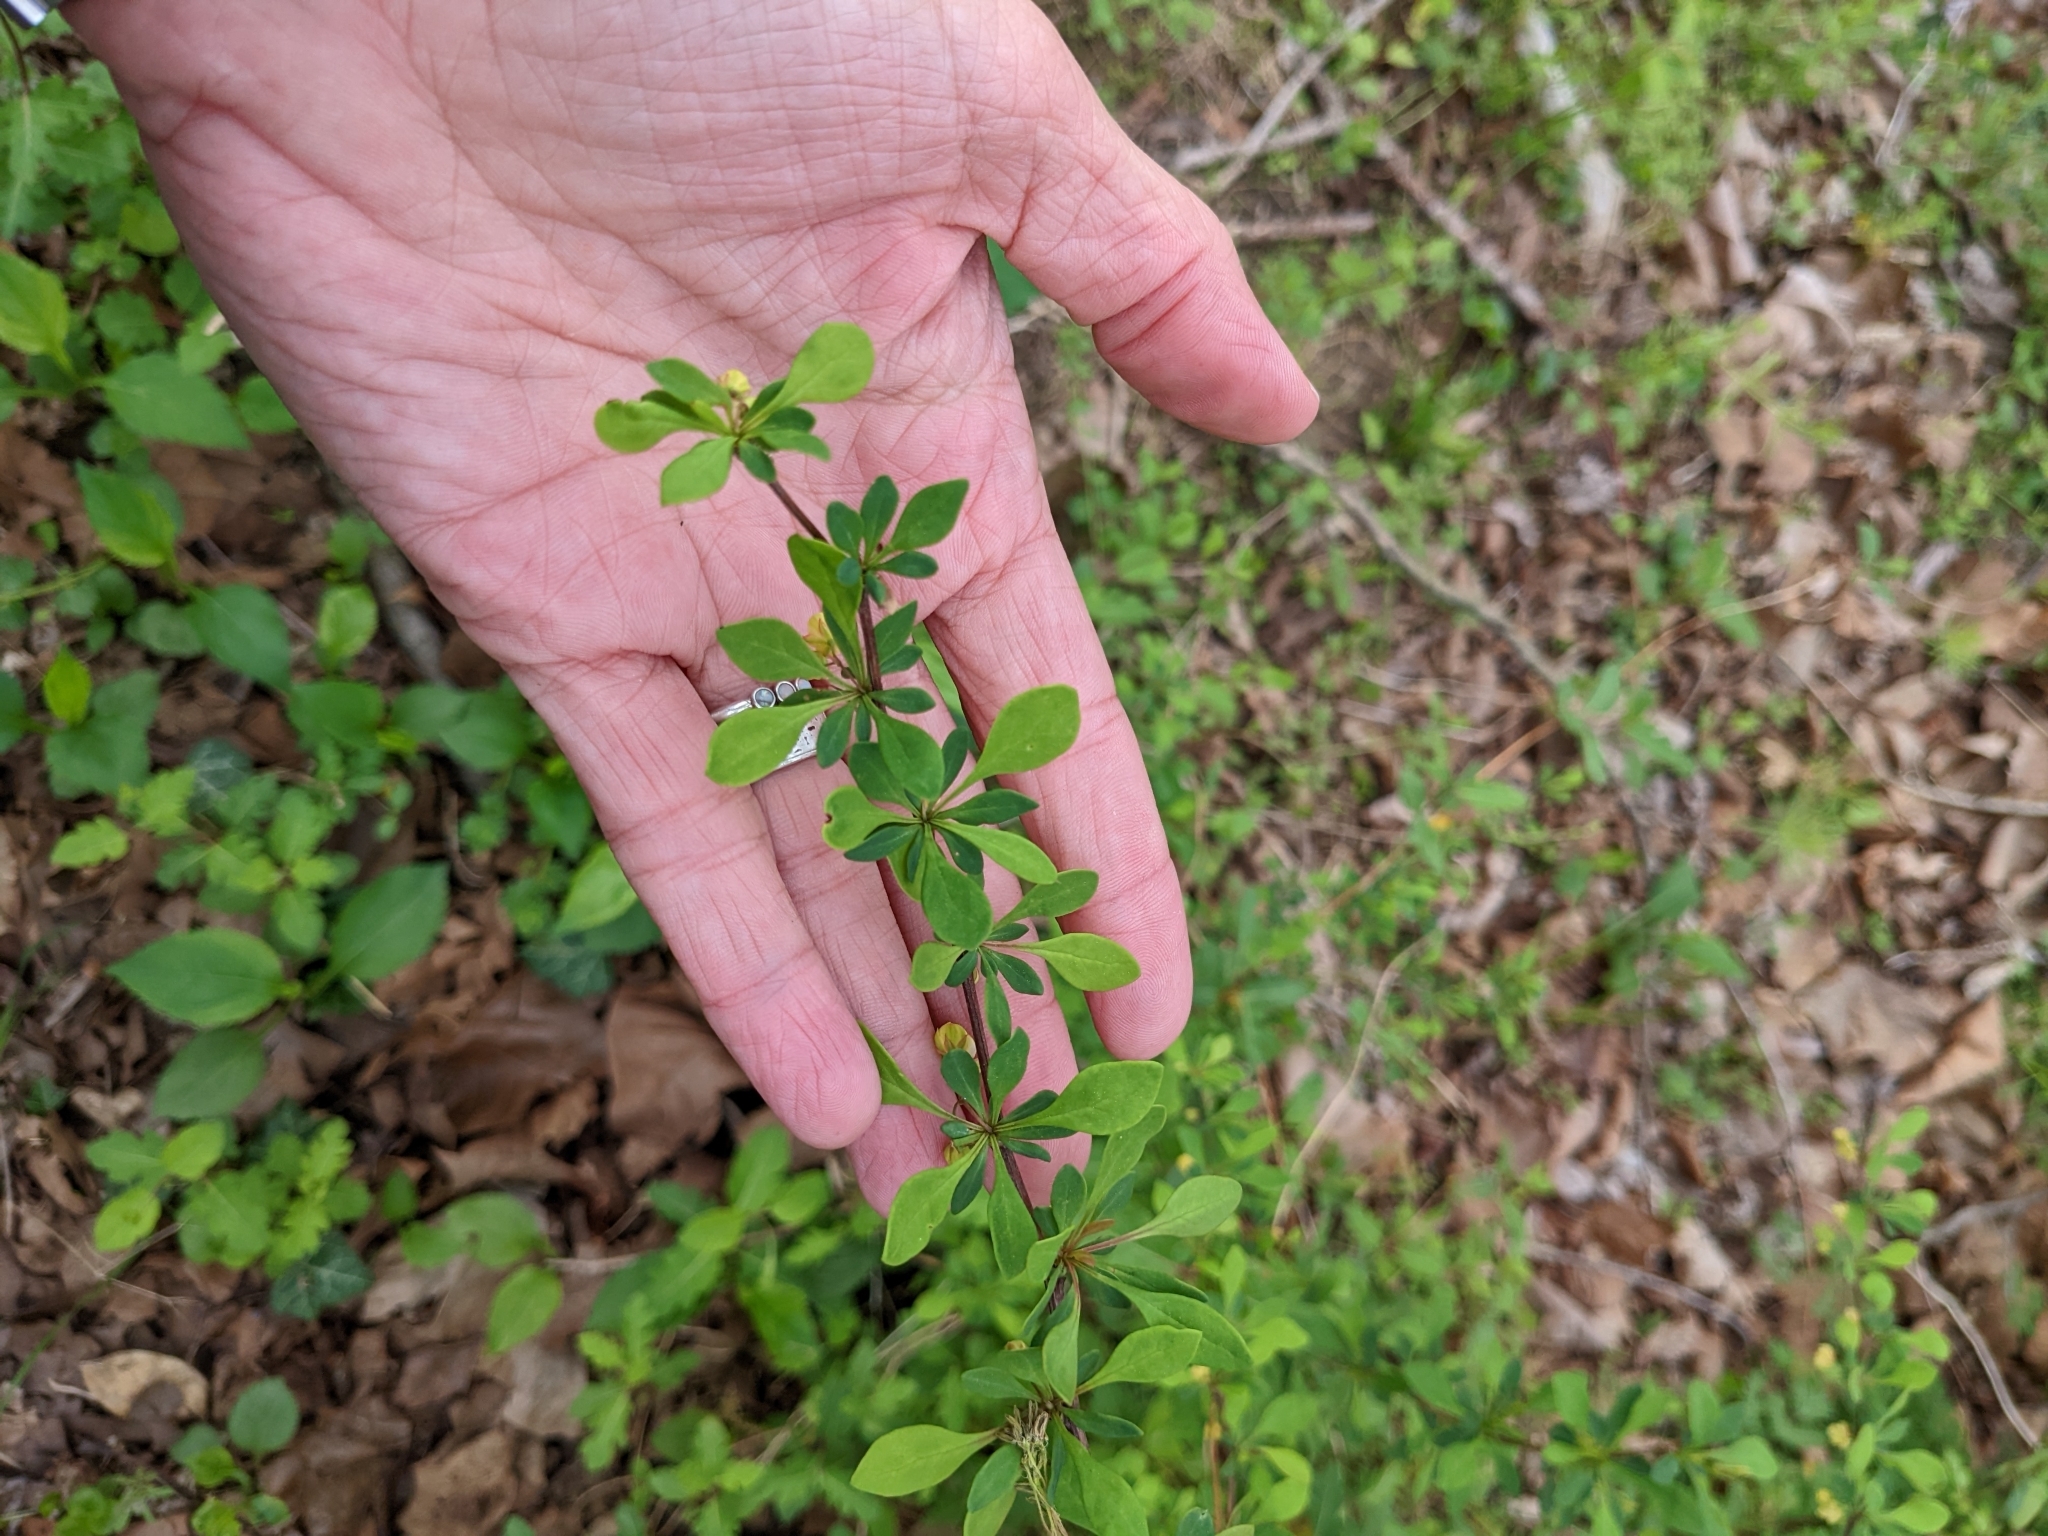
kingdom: Plantae
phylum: Tracheophyta
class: Magnoliopsida
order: Ranunculales
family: Berberidaceae
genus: Berberis
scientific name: Berberis thunbergii
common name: Japanese barberry
